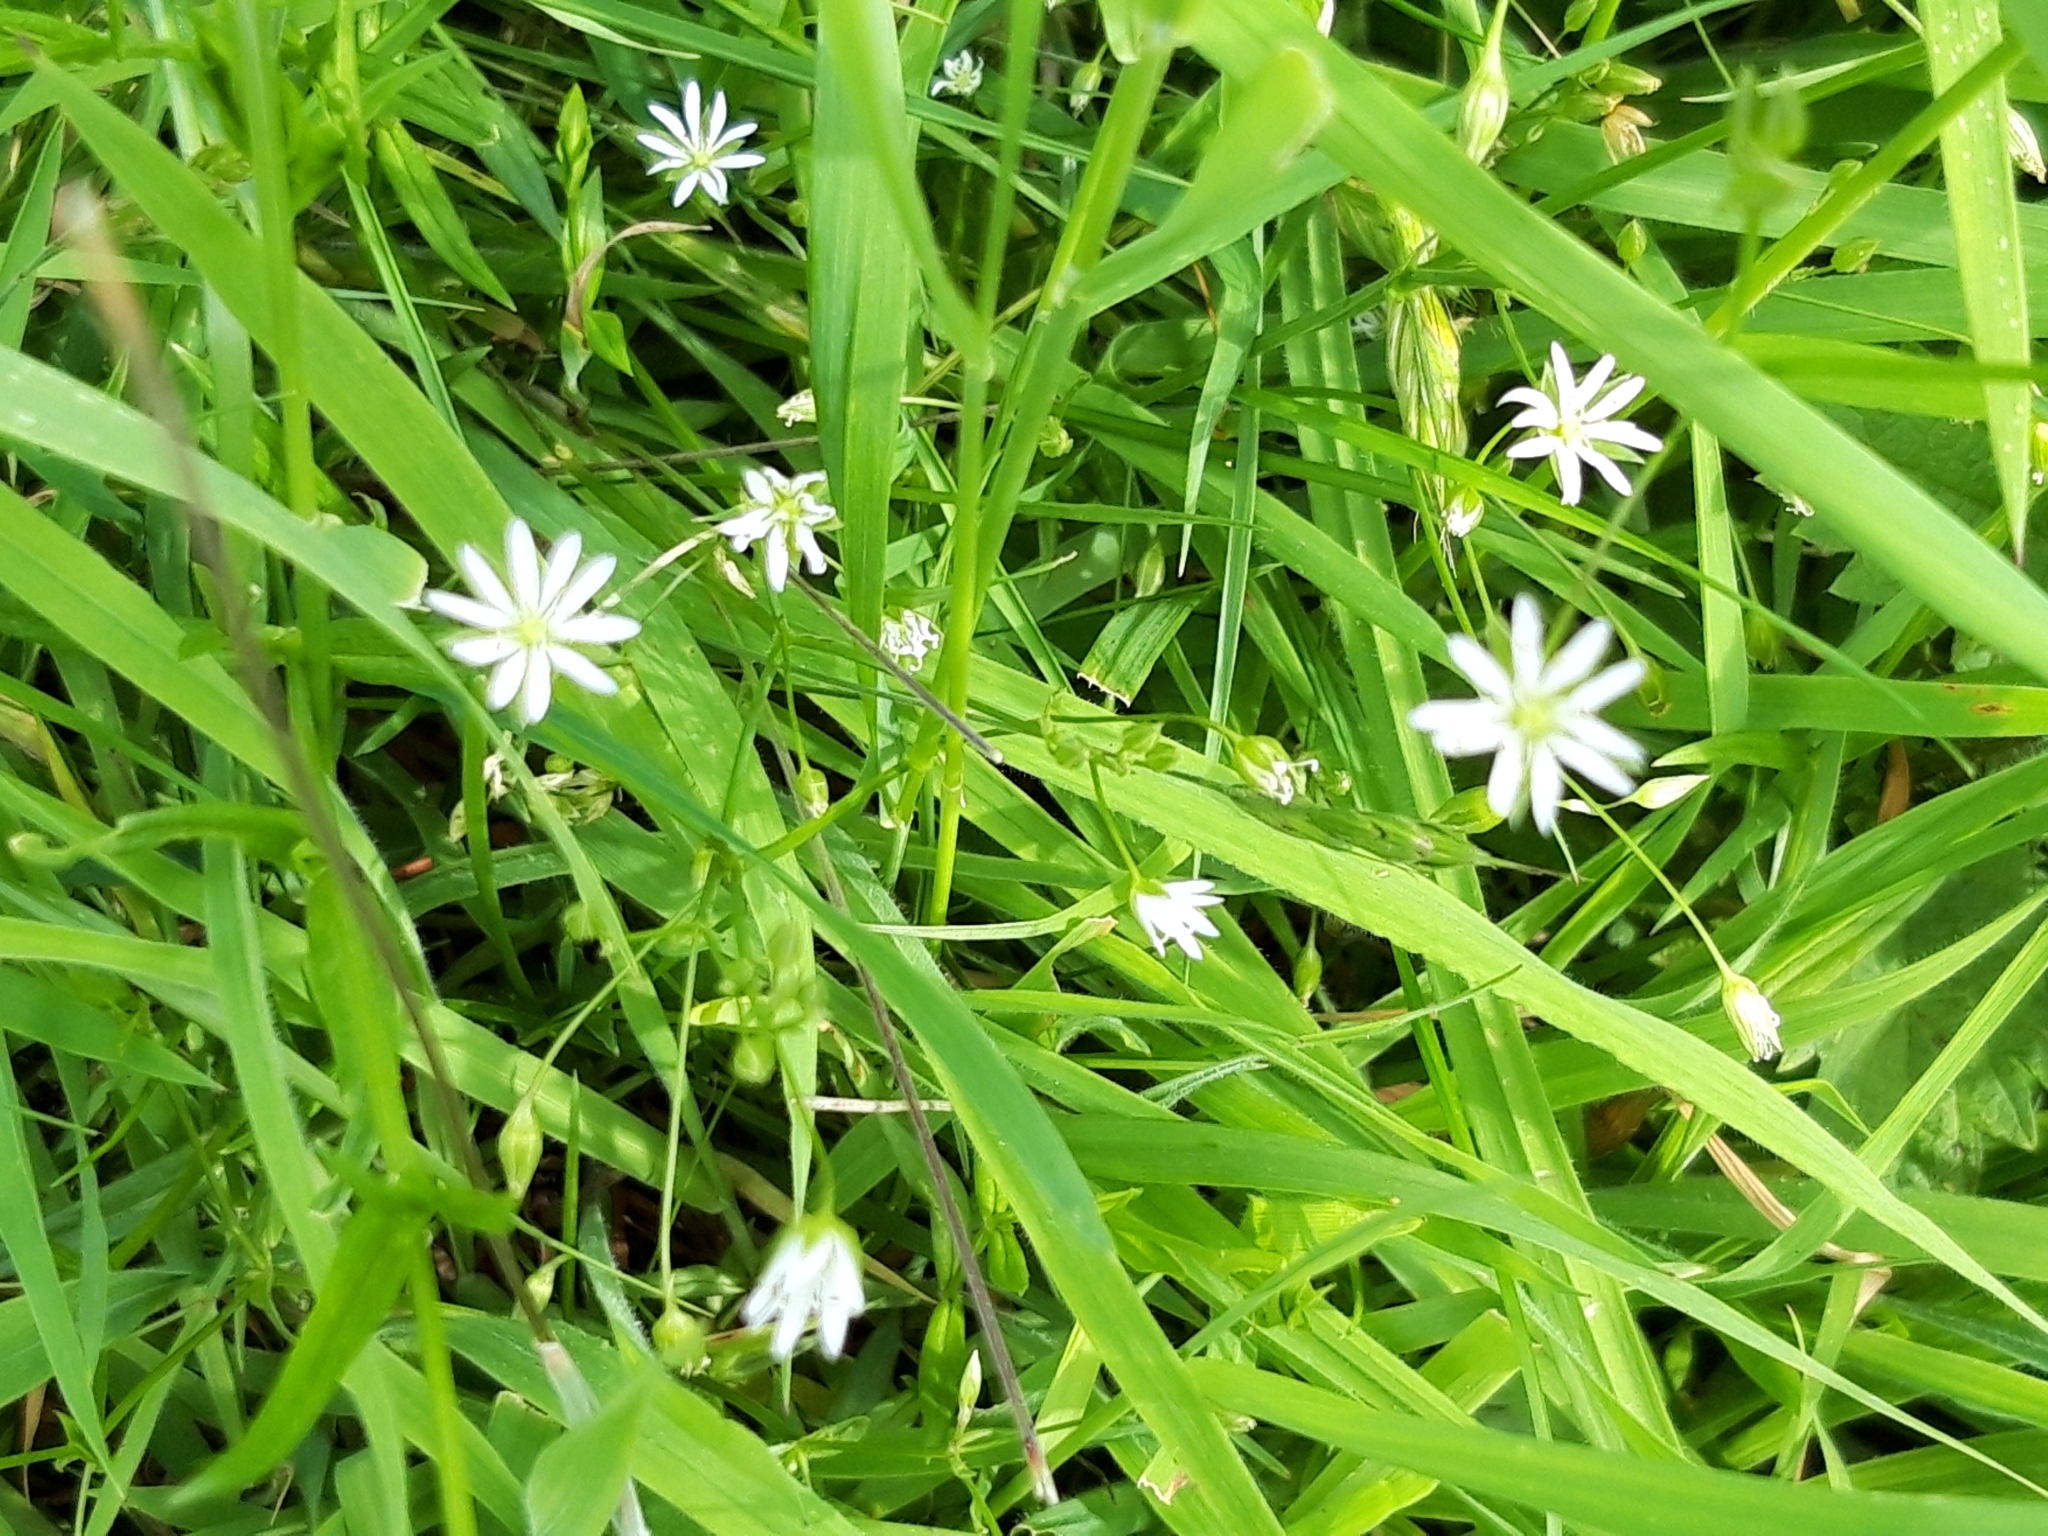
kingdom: Plantae
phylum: Tracheophyta
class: Magnoliopsida
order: Caryophyllales
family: Caryophyllaceae
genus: Stellaria
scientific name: Stellaria graminea
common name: Grass-like starwort
